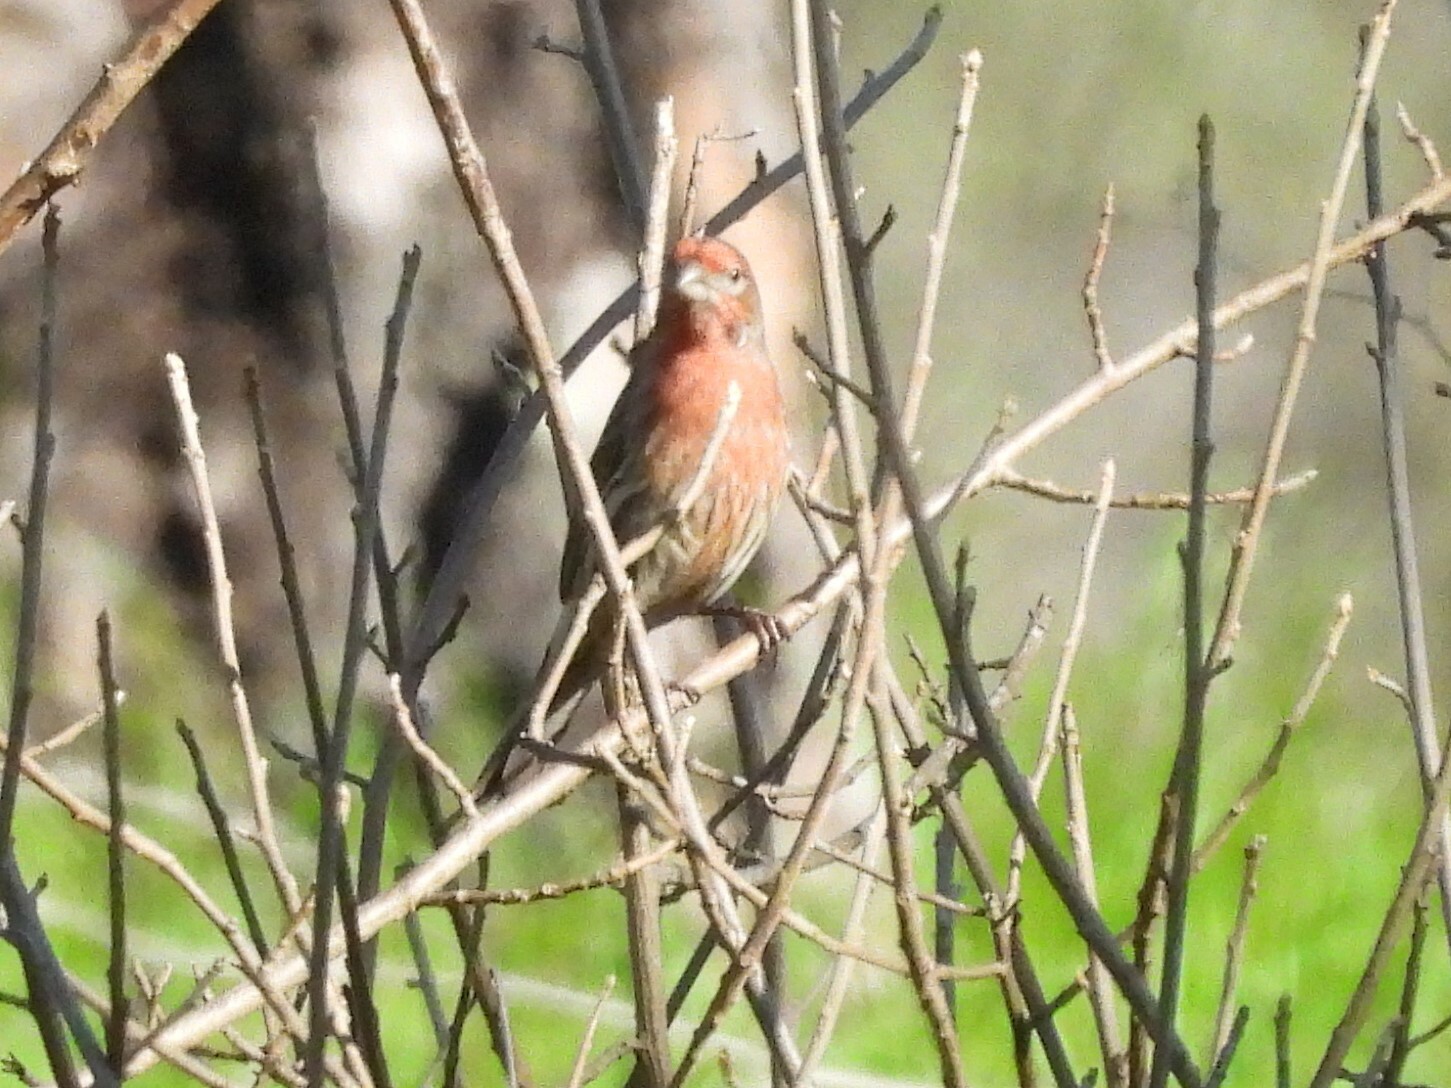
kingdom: Animalia
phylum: Chordata
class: Aves
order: Passeriformes
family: Fringillidae
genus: Haemorhous
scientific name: Haemorhous mexicanus
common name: House finch
